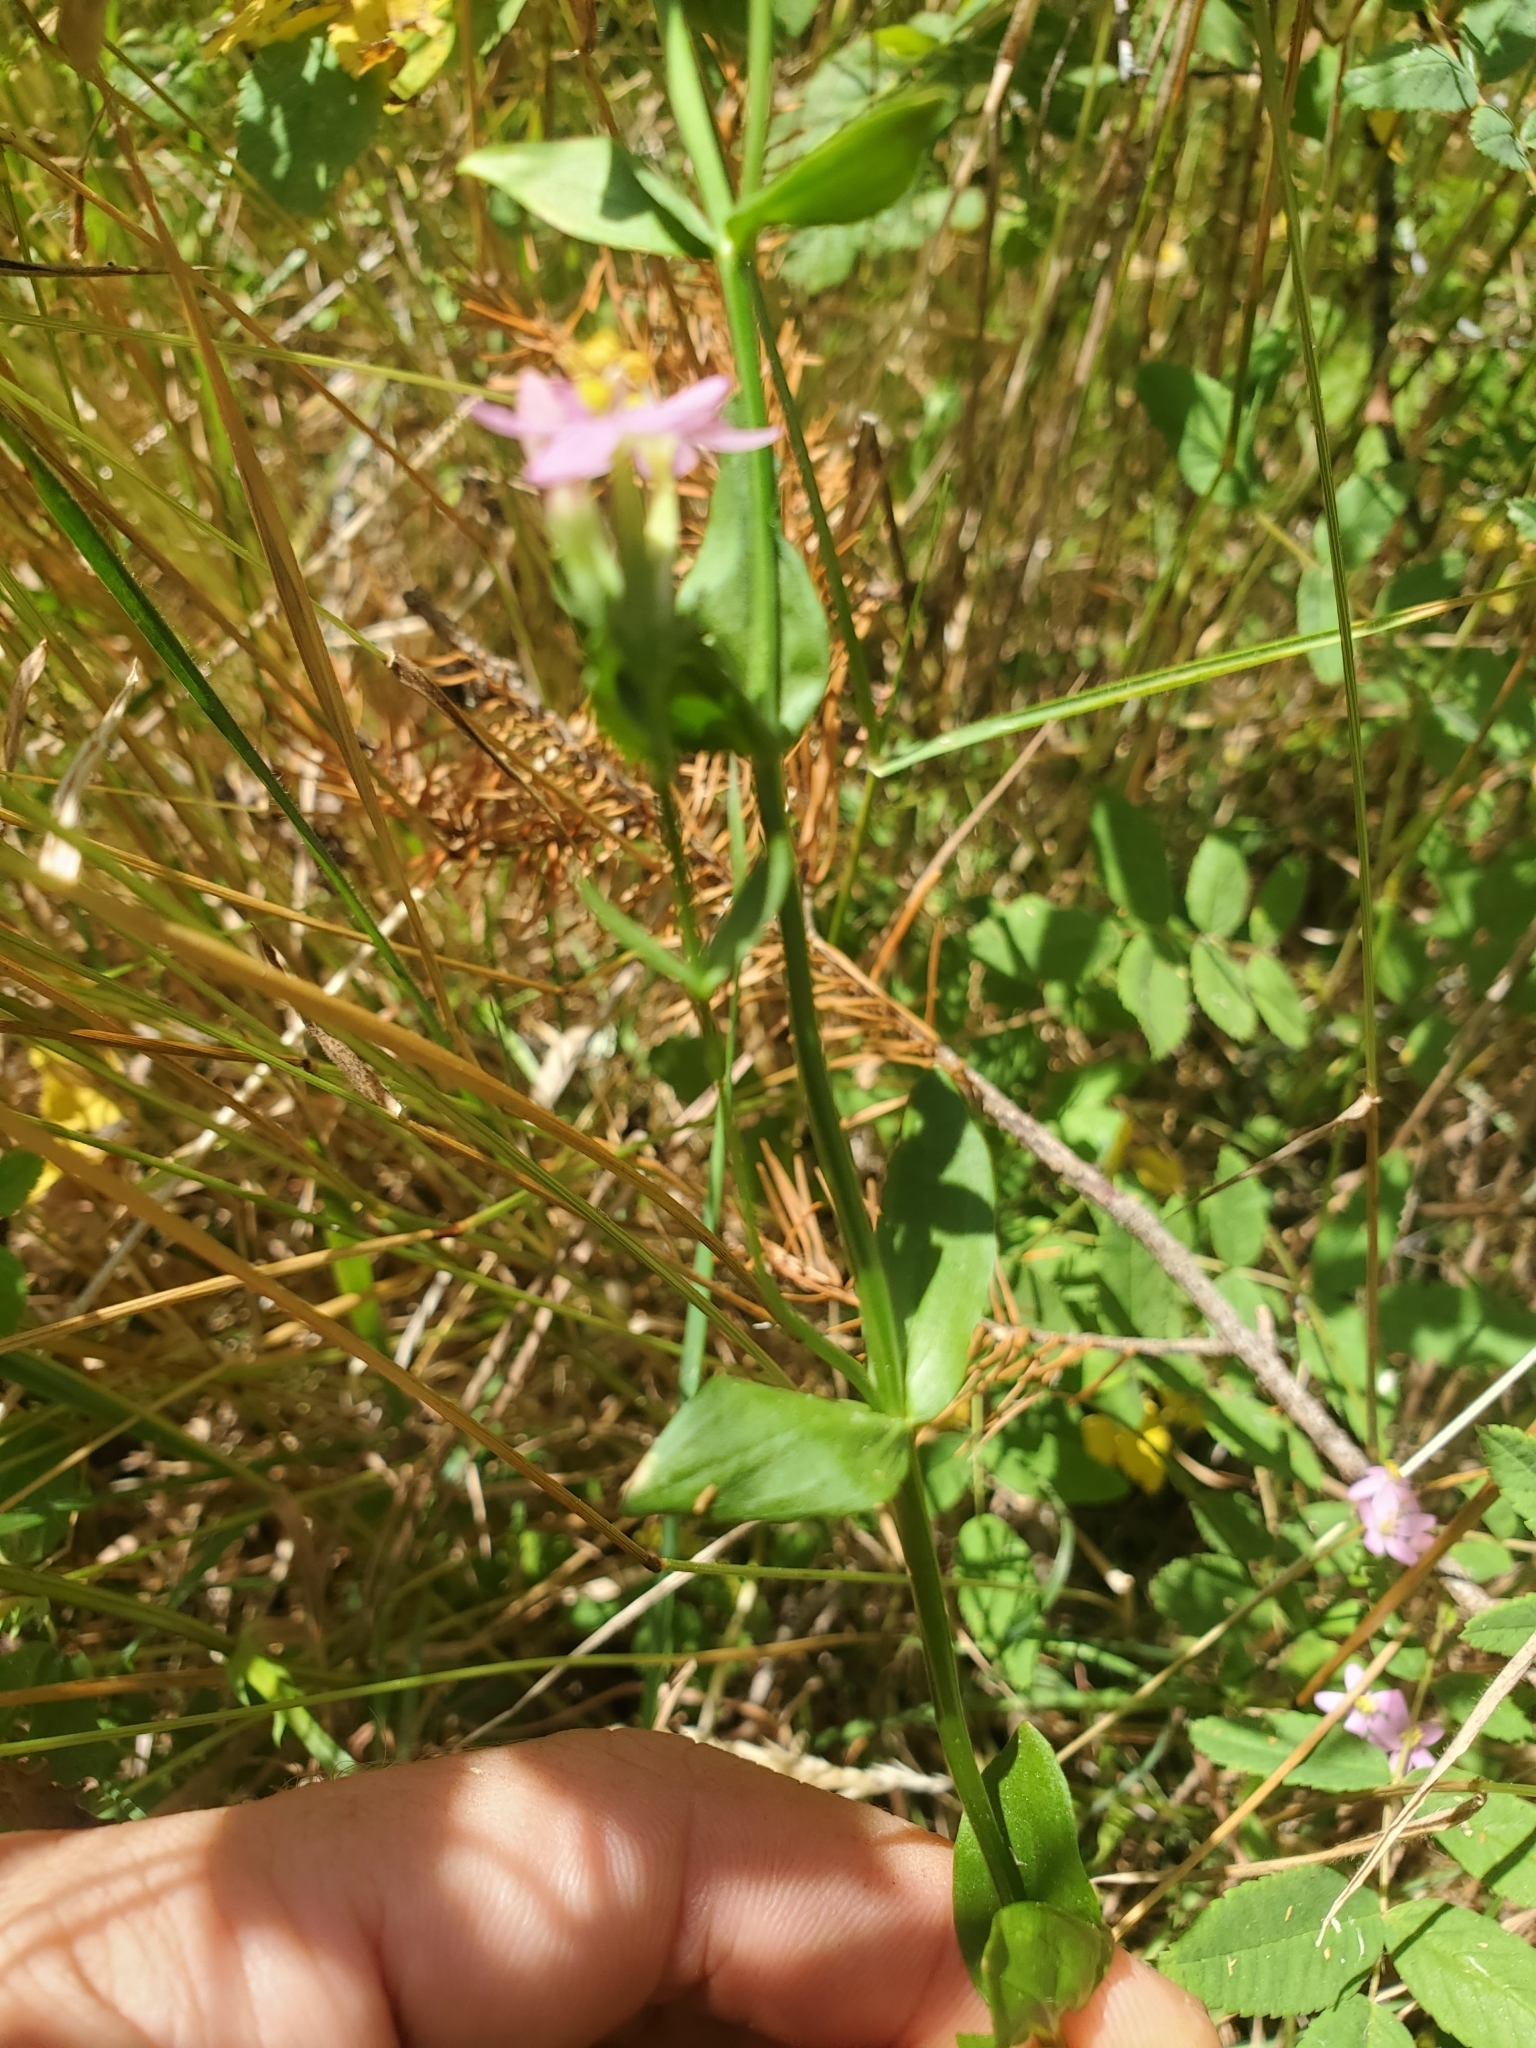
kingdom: Plantae
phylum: Tracheophyta
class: Magnoliopsida
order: Gentianales
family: Gentianaceae
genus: Centaurium
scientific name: Centaurium erythraea
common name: Common centaury
